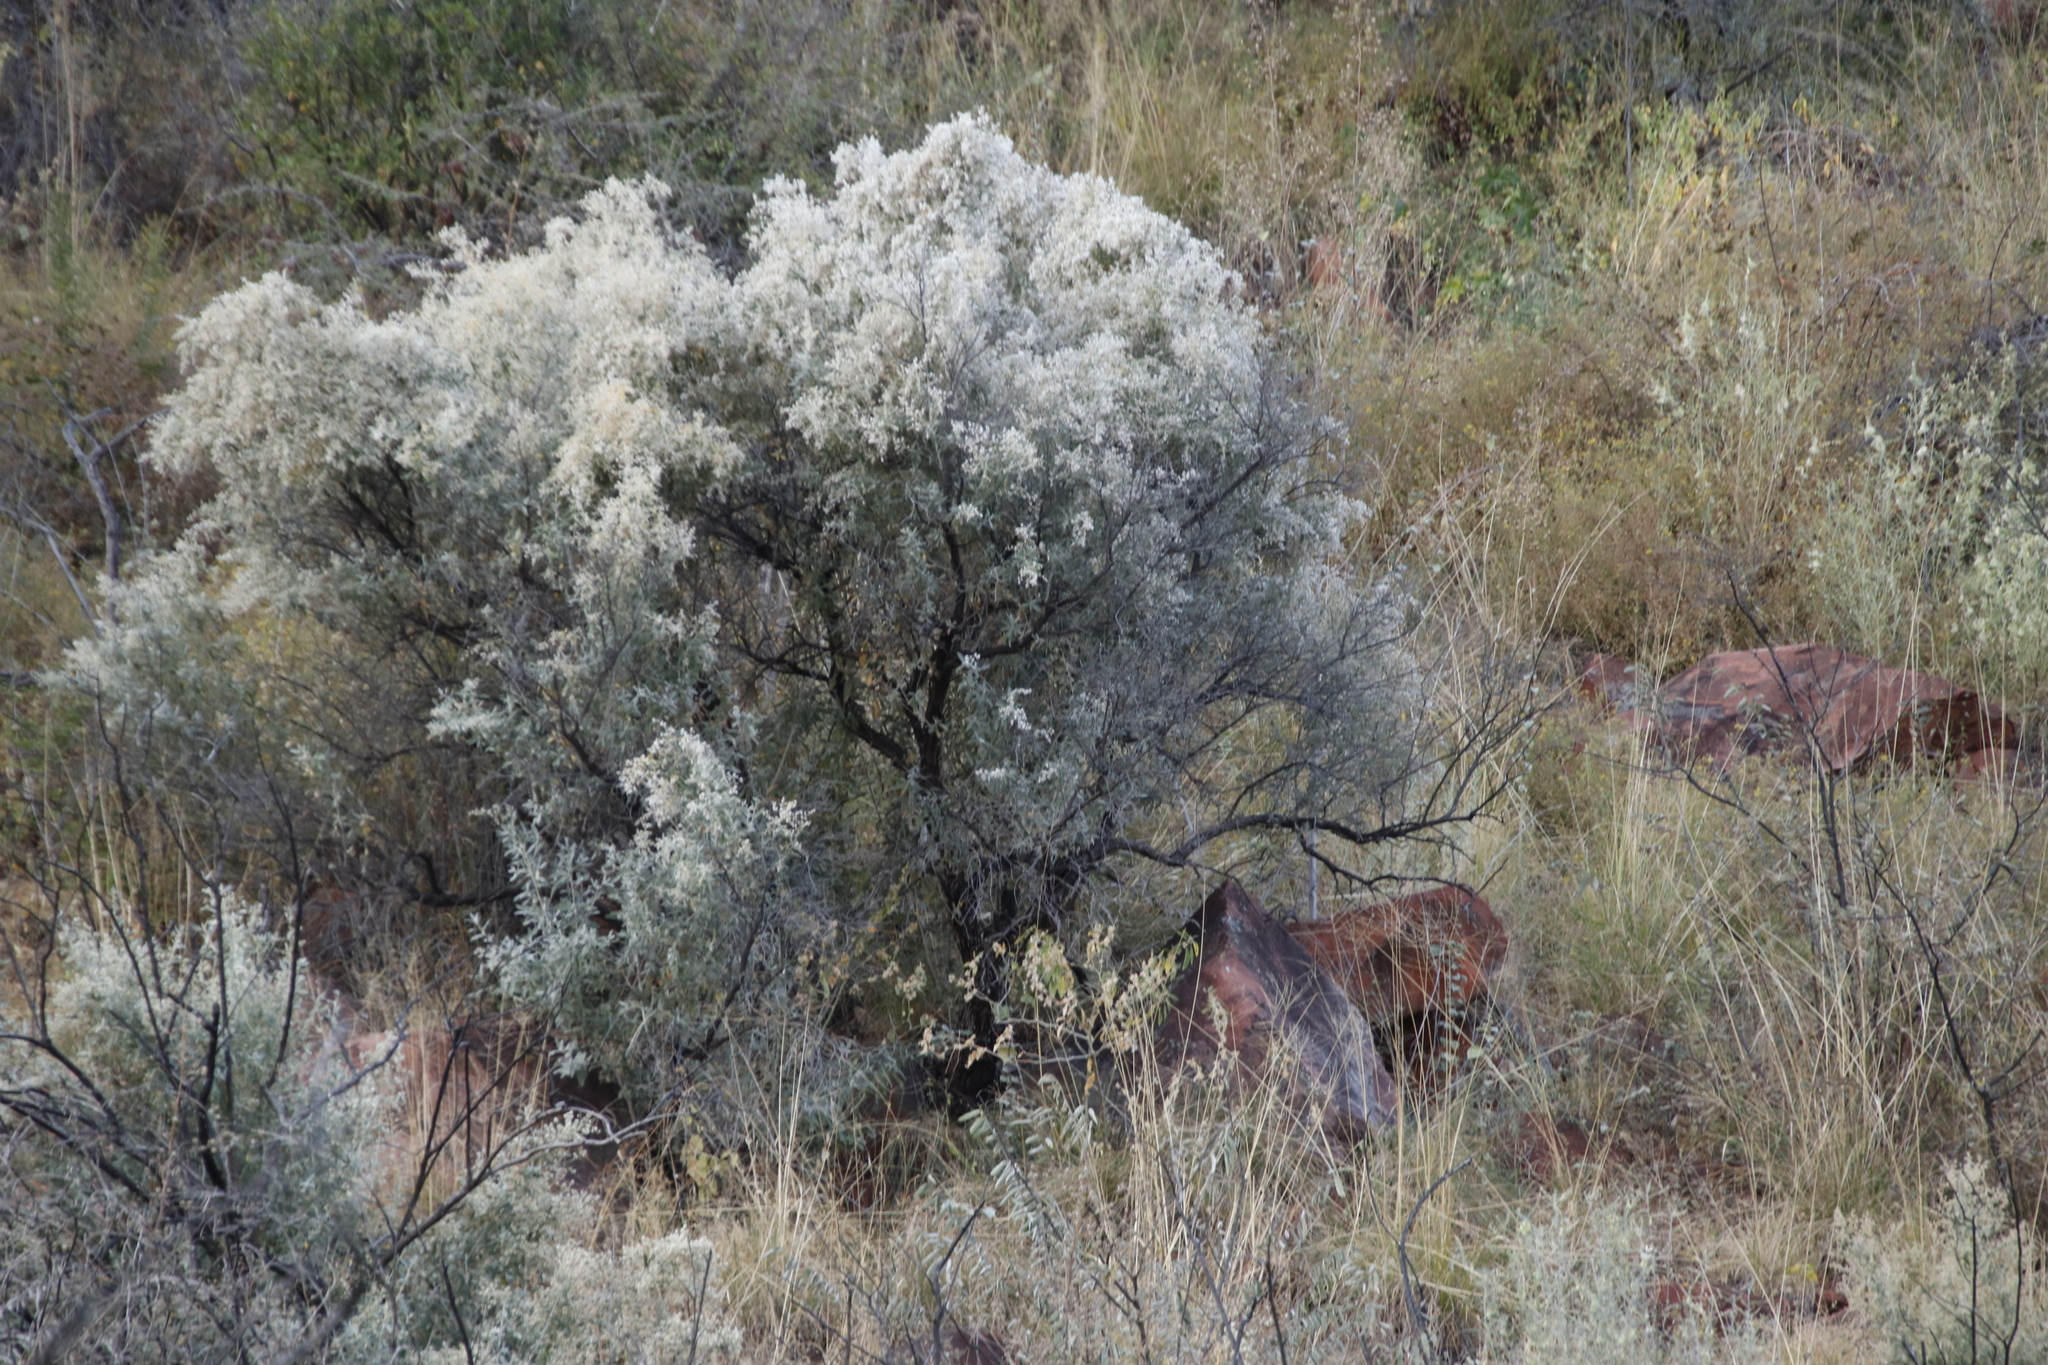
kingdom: Plantae
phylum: Tracheophyta
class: Magnoliopsida
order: Asterales
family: Asteraceae
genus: Tarchonanthus
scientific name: Tarchonanthus camphoratus
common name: Camphorwood
